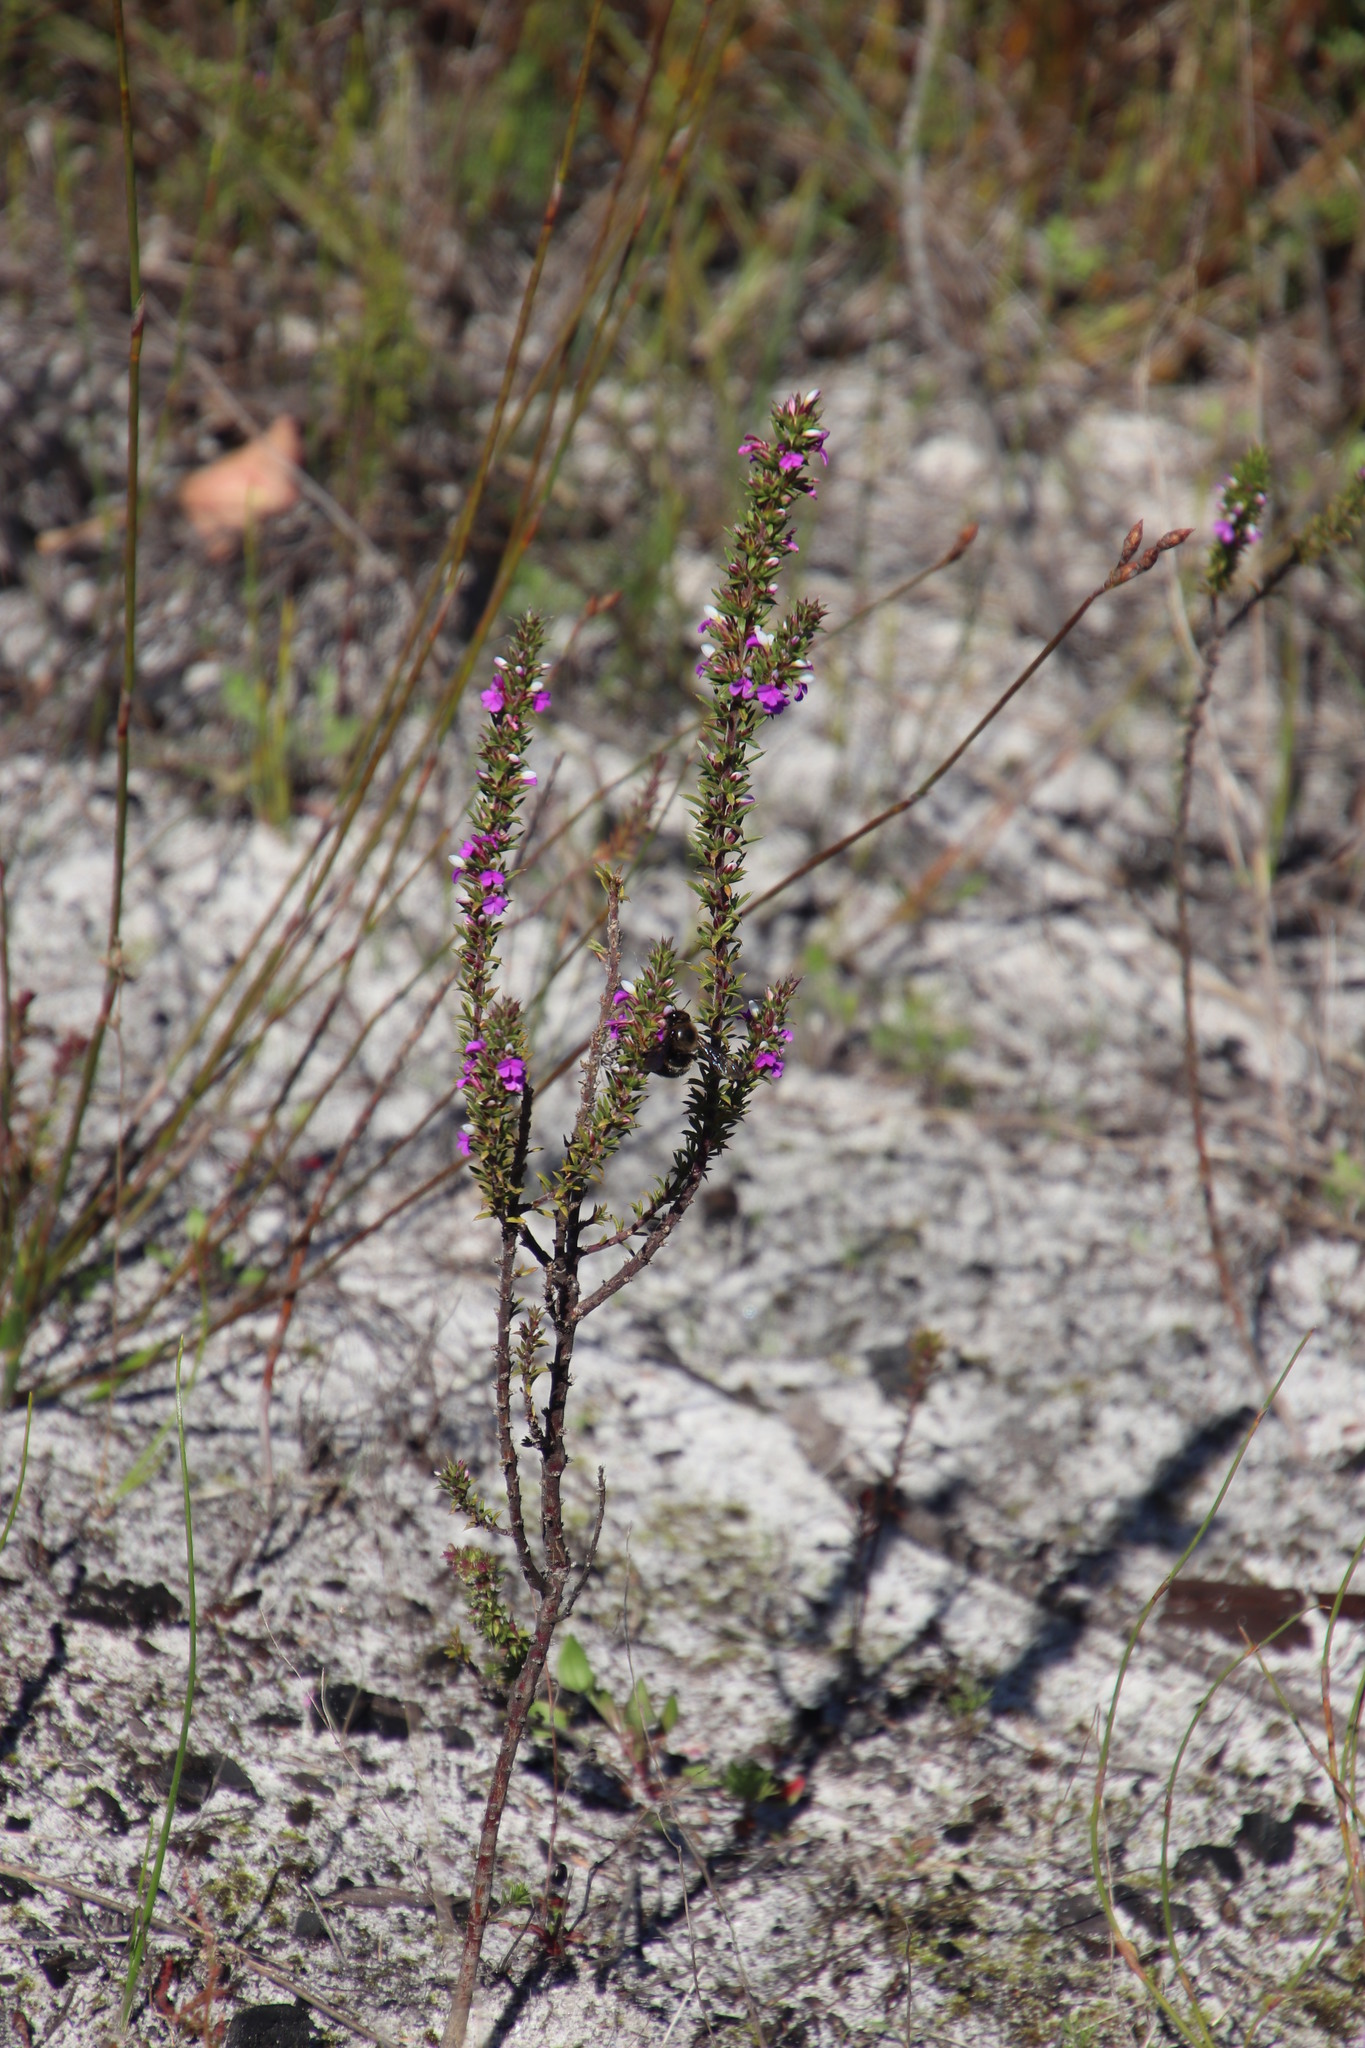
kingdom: Plantae
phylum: Tracheophyta
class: Magnoliopsida
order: Fabales
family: Polygalaceae
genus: Muraltia
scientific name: Muraltia heisteria
